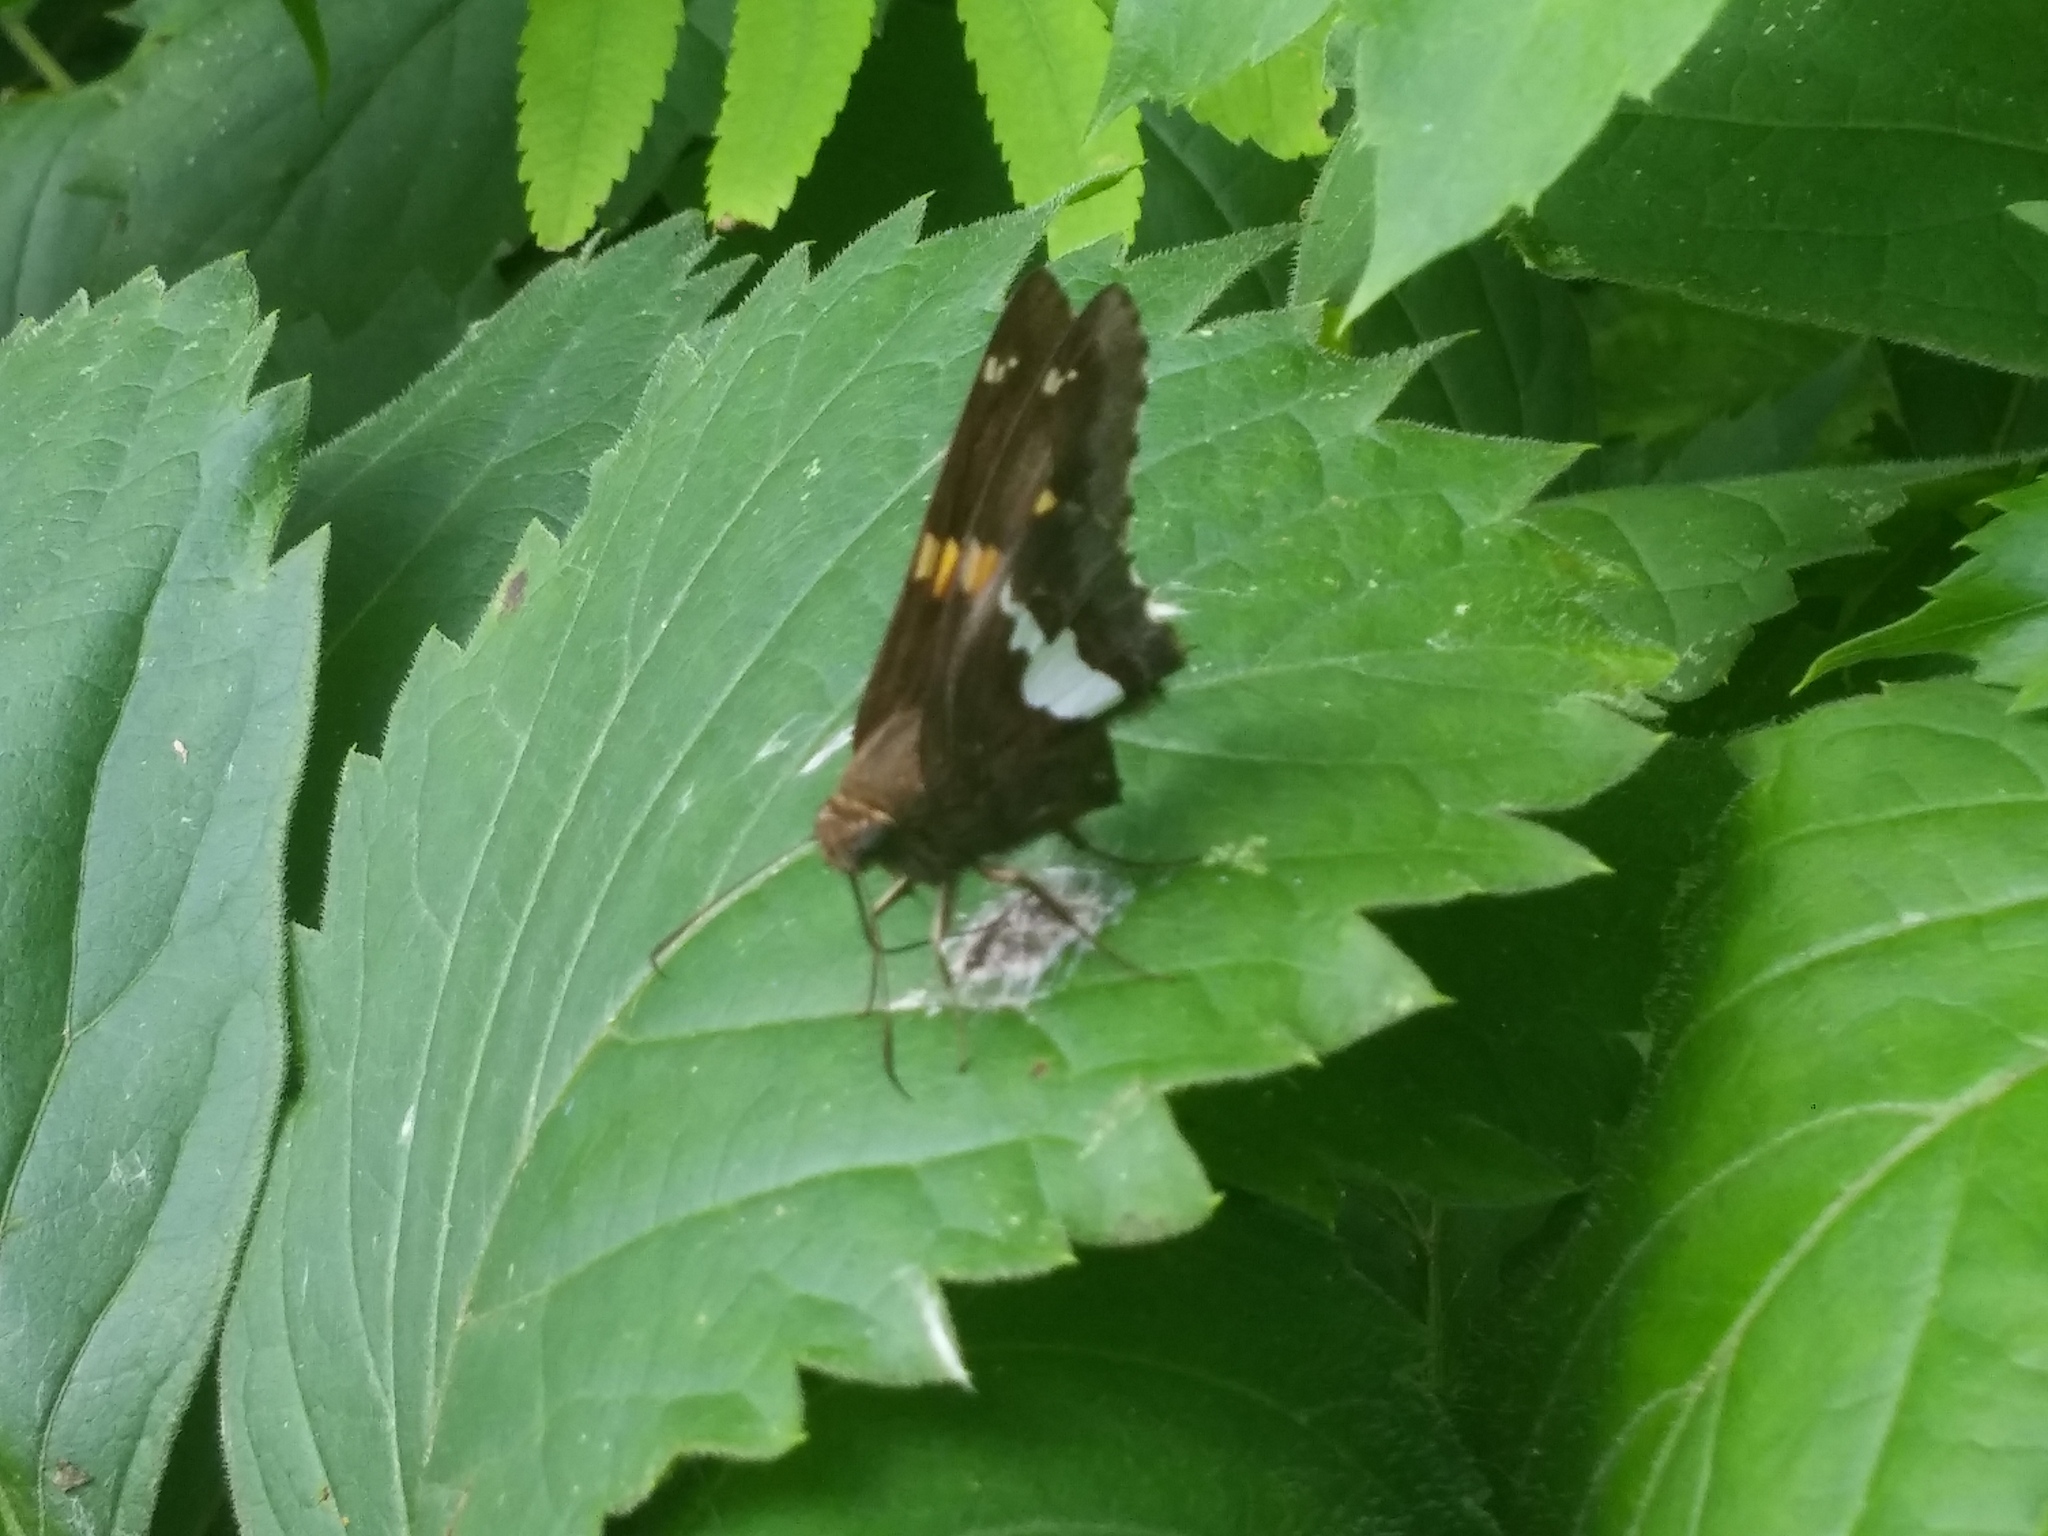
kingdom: Animalia
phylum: Arthropoda
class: Insecta
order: Lepidoptera
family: Hesperiidae
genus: Epargyreus
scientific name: Epargyreus clarus
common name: Silver-spotted skipper
